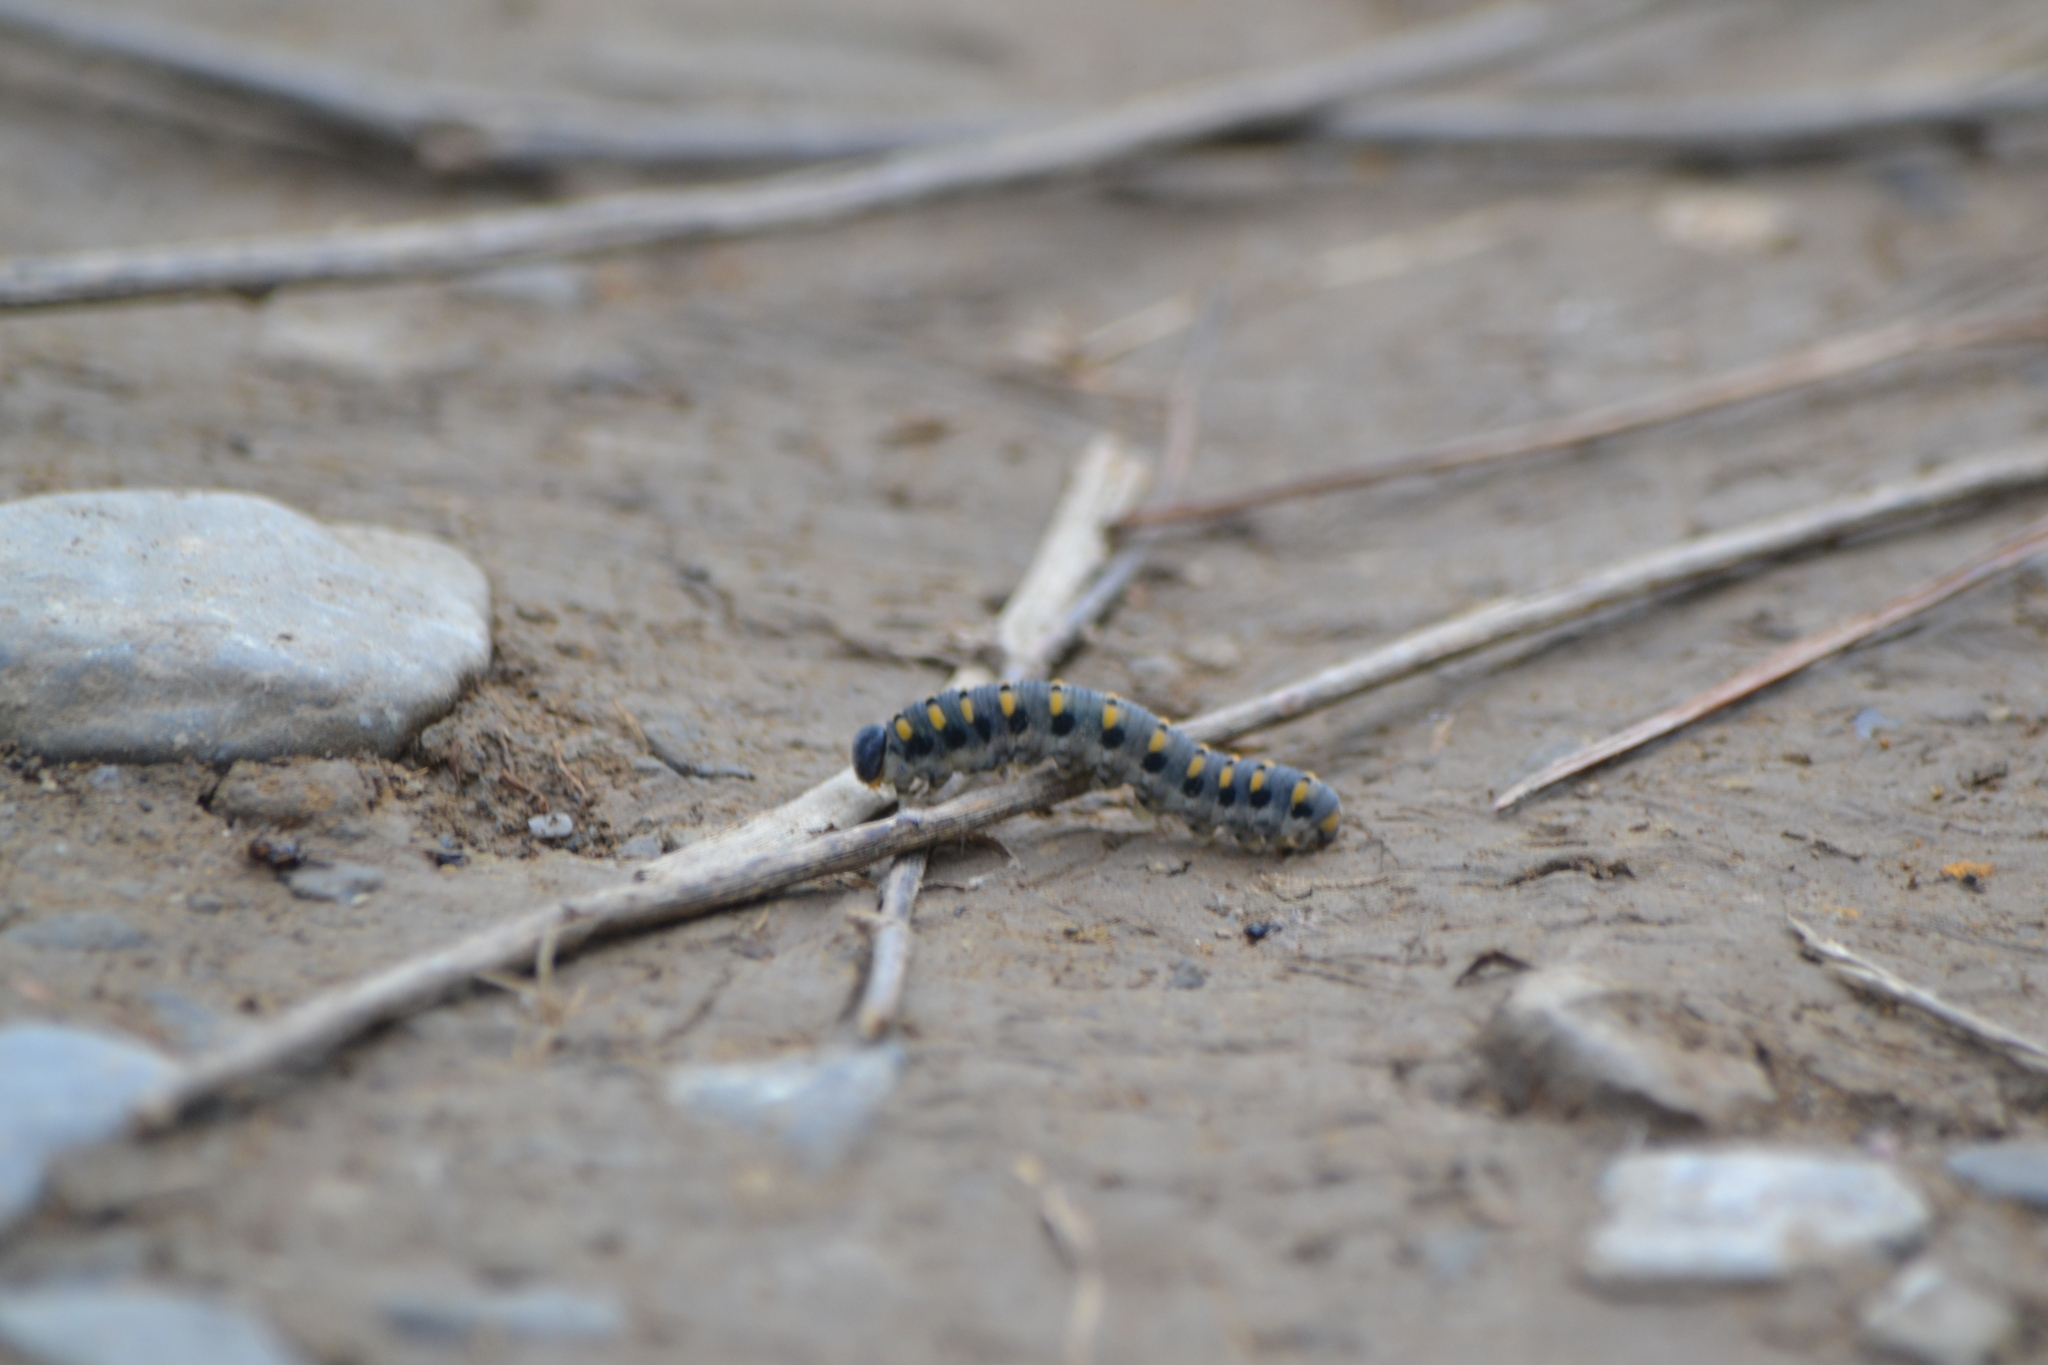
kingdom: Animalia
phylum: Arthropoda
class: Insecta
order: Hymenoptera
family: Cimbicidae
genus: Abia
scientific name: Abia nitens
